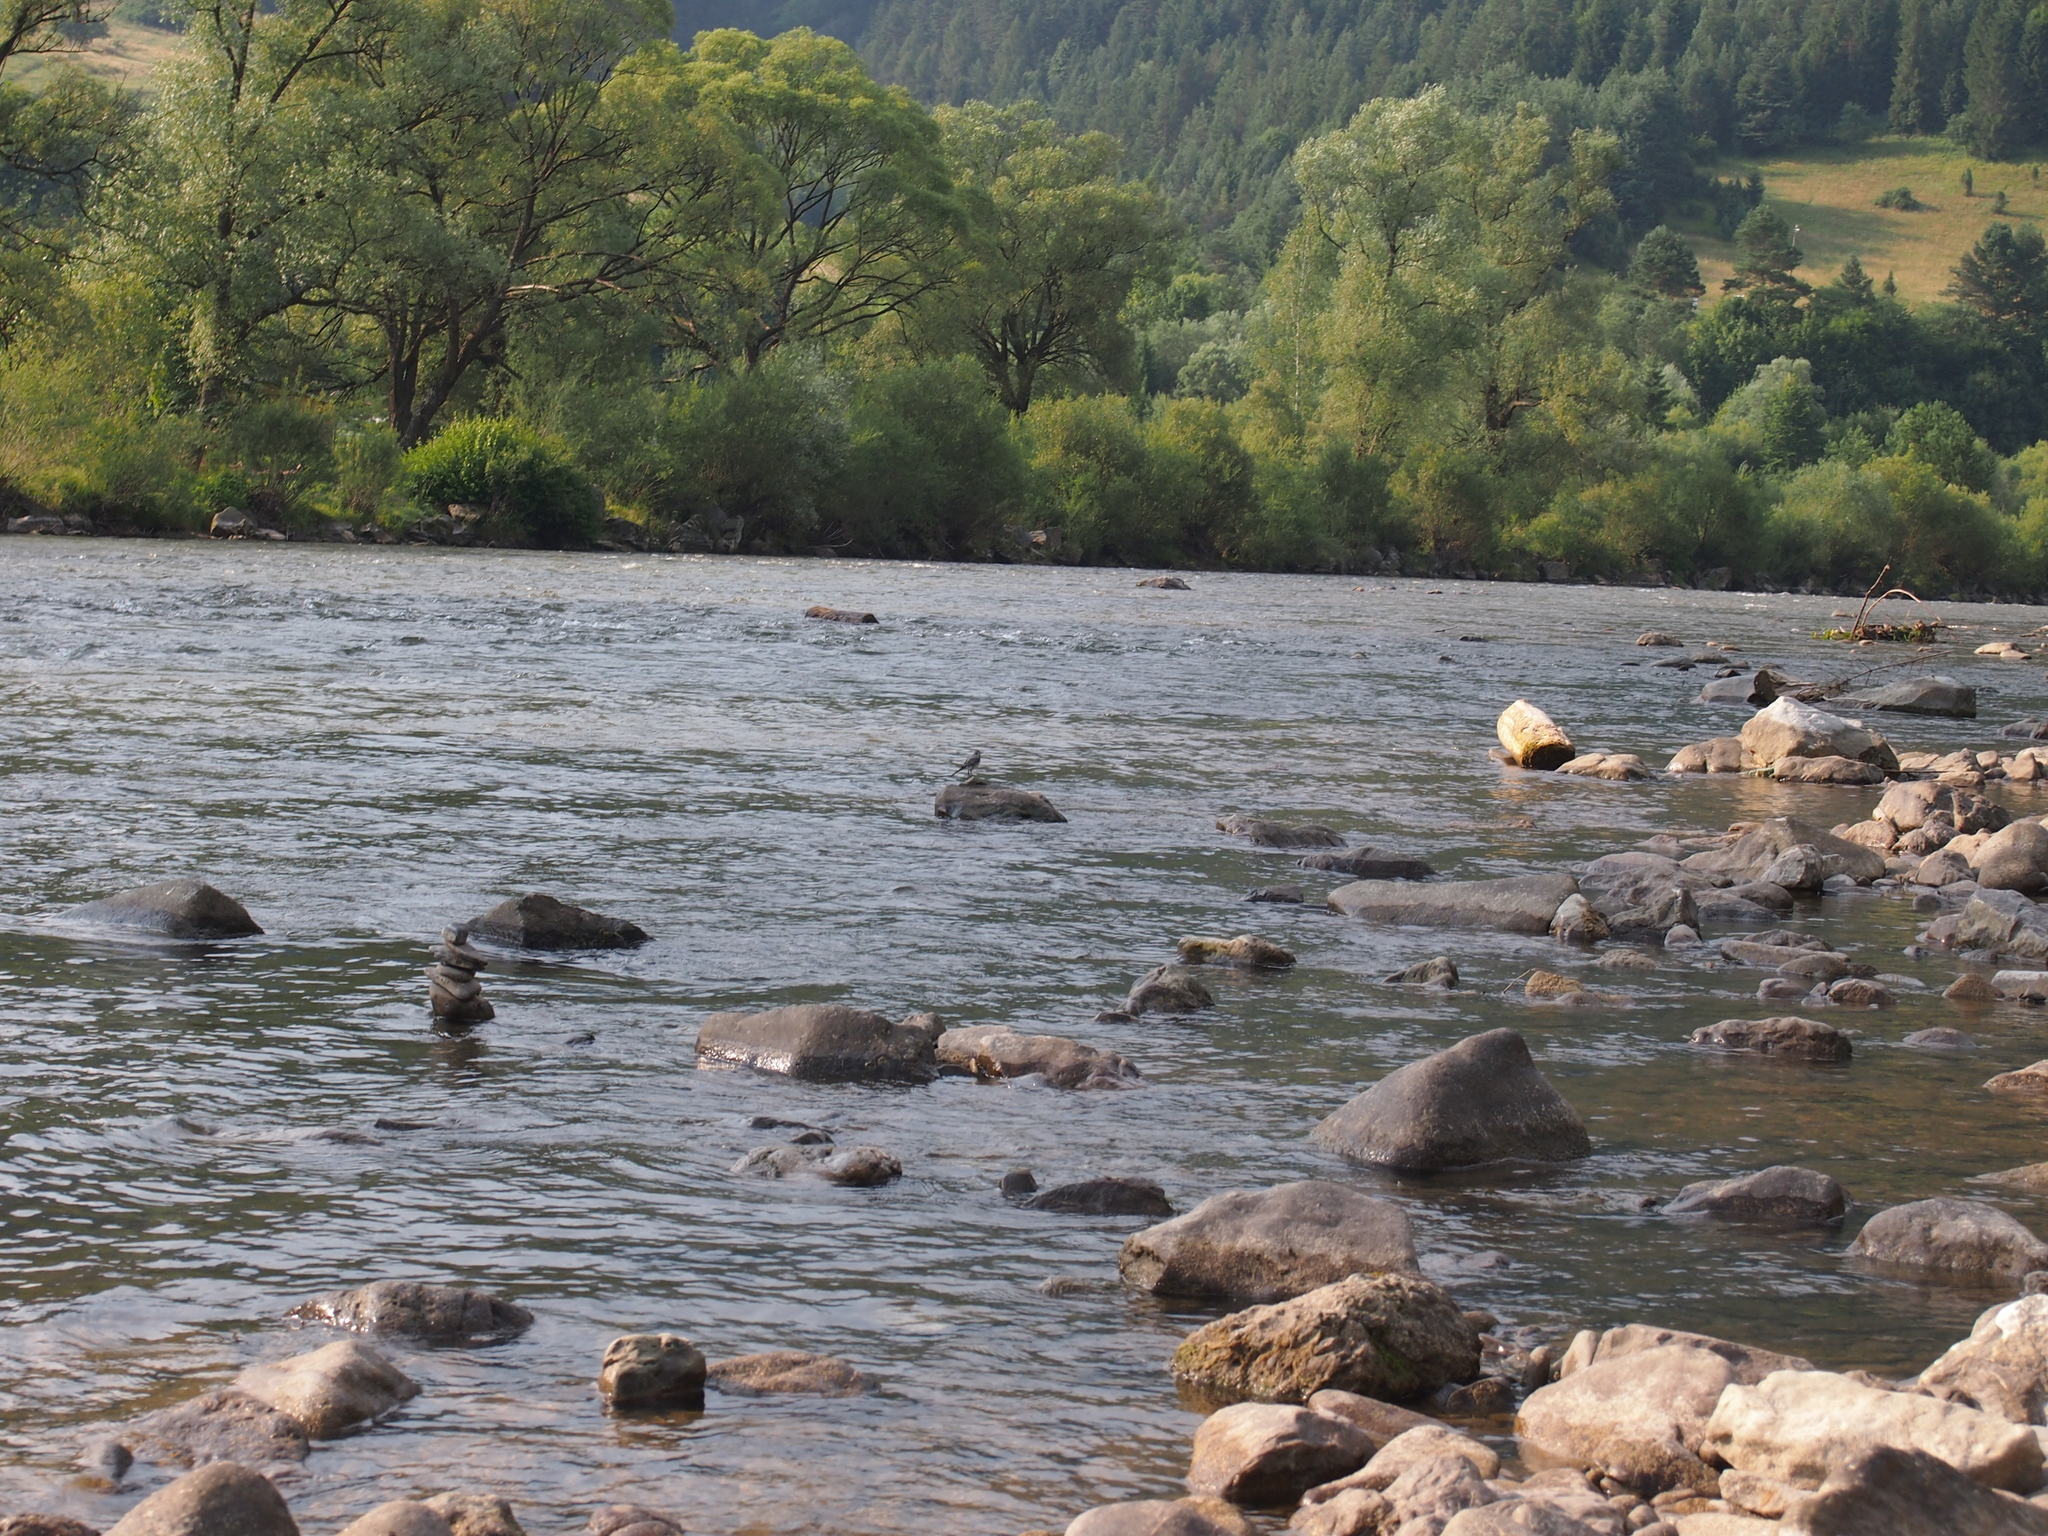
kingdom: Animalia
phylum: Chordata
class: Aves
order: Passeriformes
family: Motacillidae
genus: Motacilla
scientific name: Motacilla alba
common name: White wagtail
